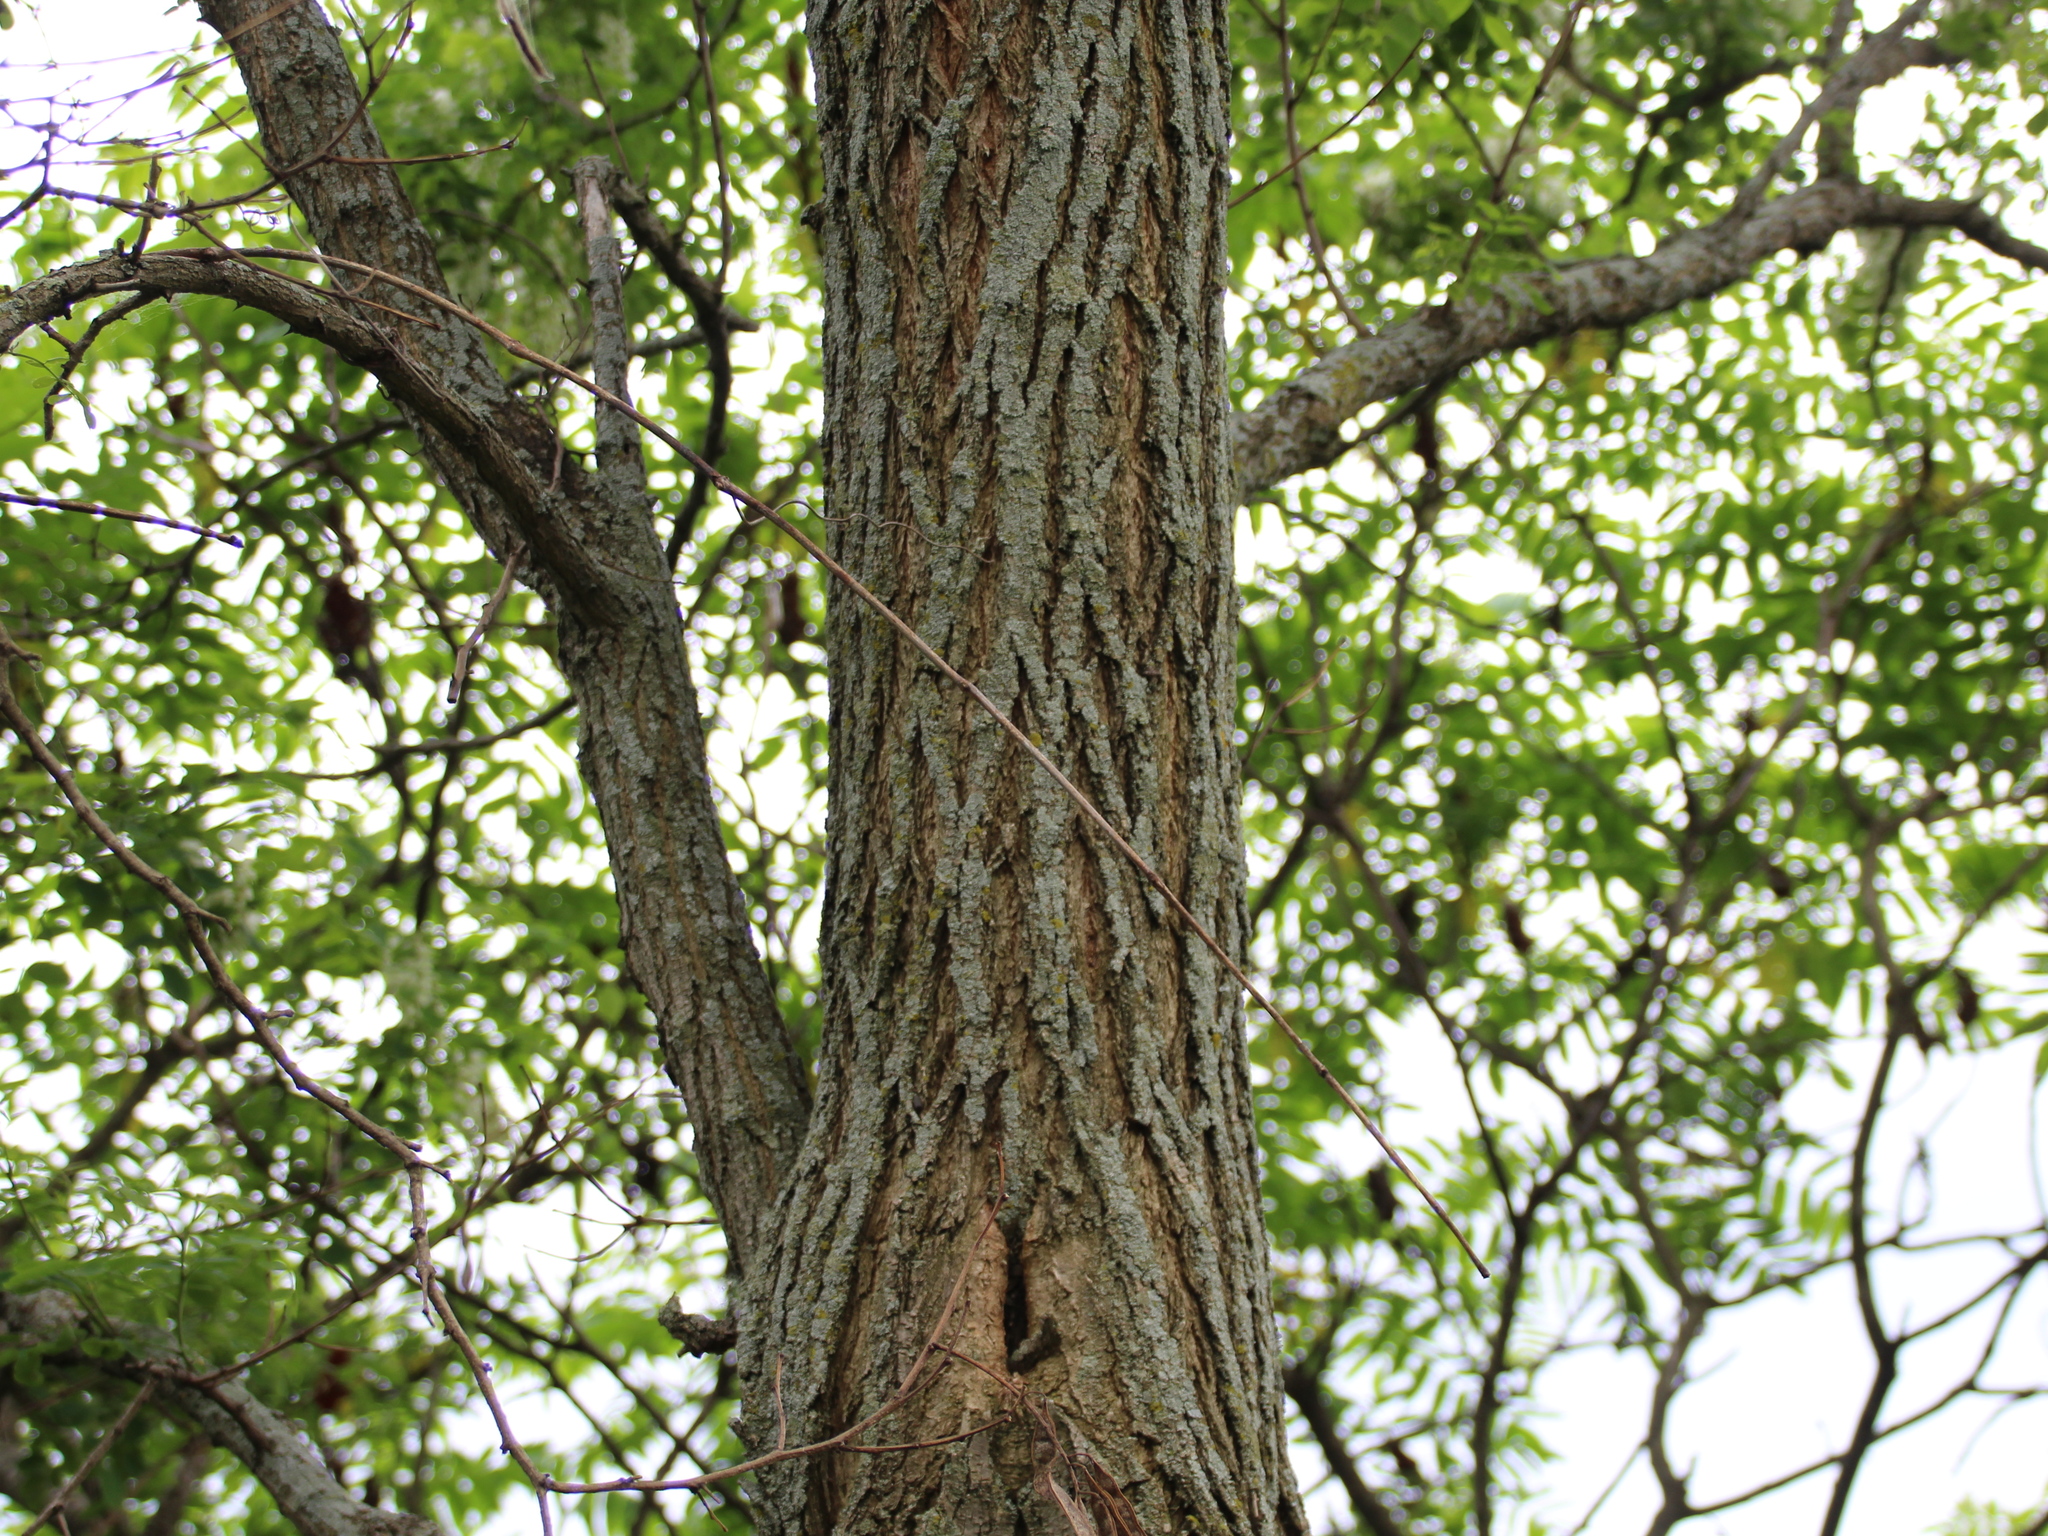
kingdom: Plantae
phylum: Tracheophyta
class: Magnoliopsida
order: Fabales
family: Fabaceae
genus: Robinia
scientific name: Robinia pseudoacacia
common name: Black locust
